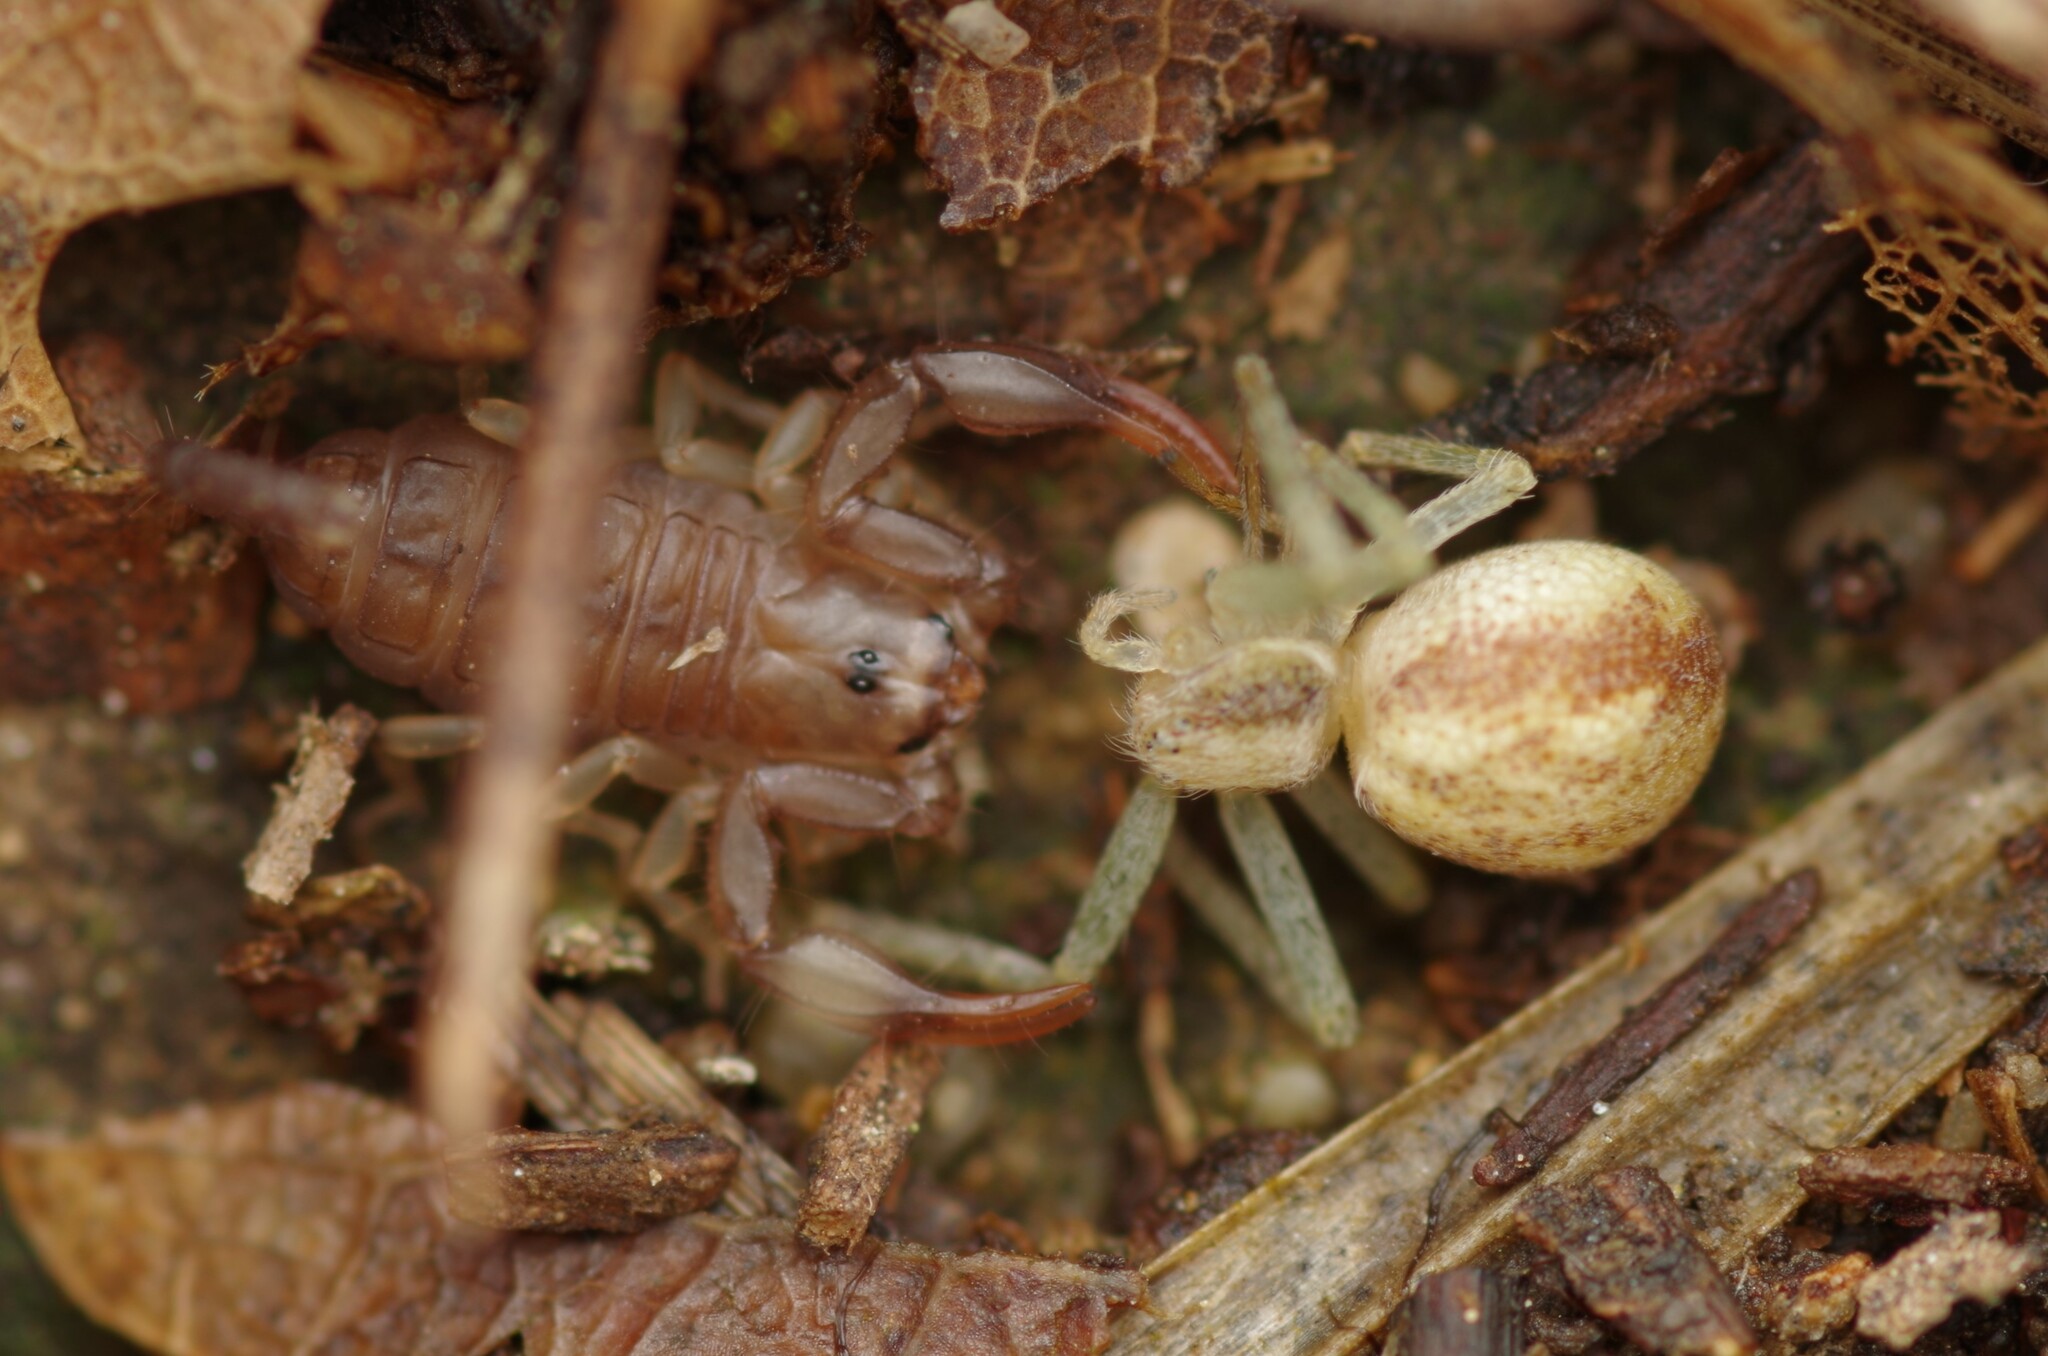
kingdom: Animalia
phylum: Arthropoda
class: Arachnida
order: Scorpiones
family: Euscorpiidae
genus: Euscorpius
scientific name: Euscorpius flavicaudis
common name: European yellow-tailed scorpion
